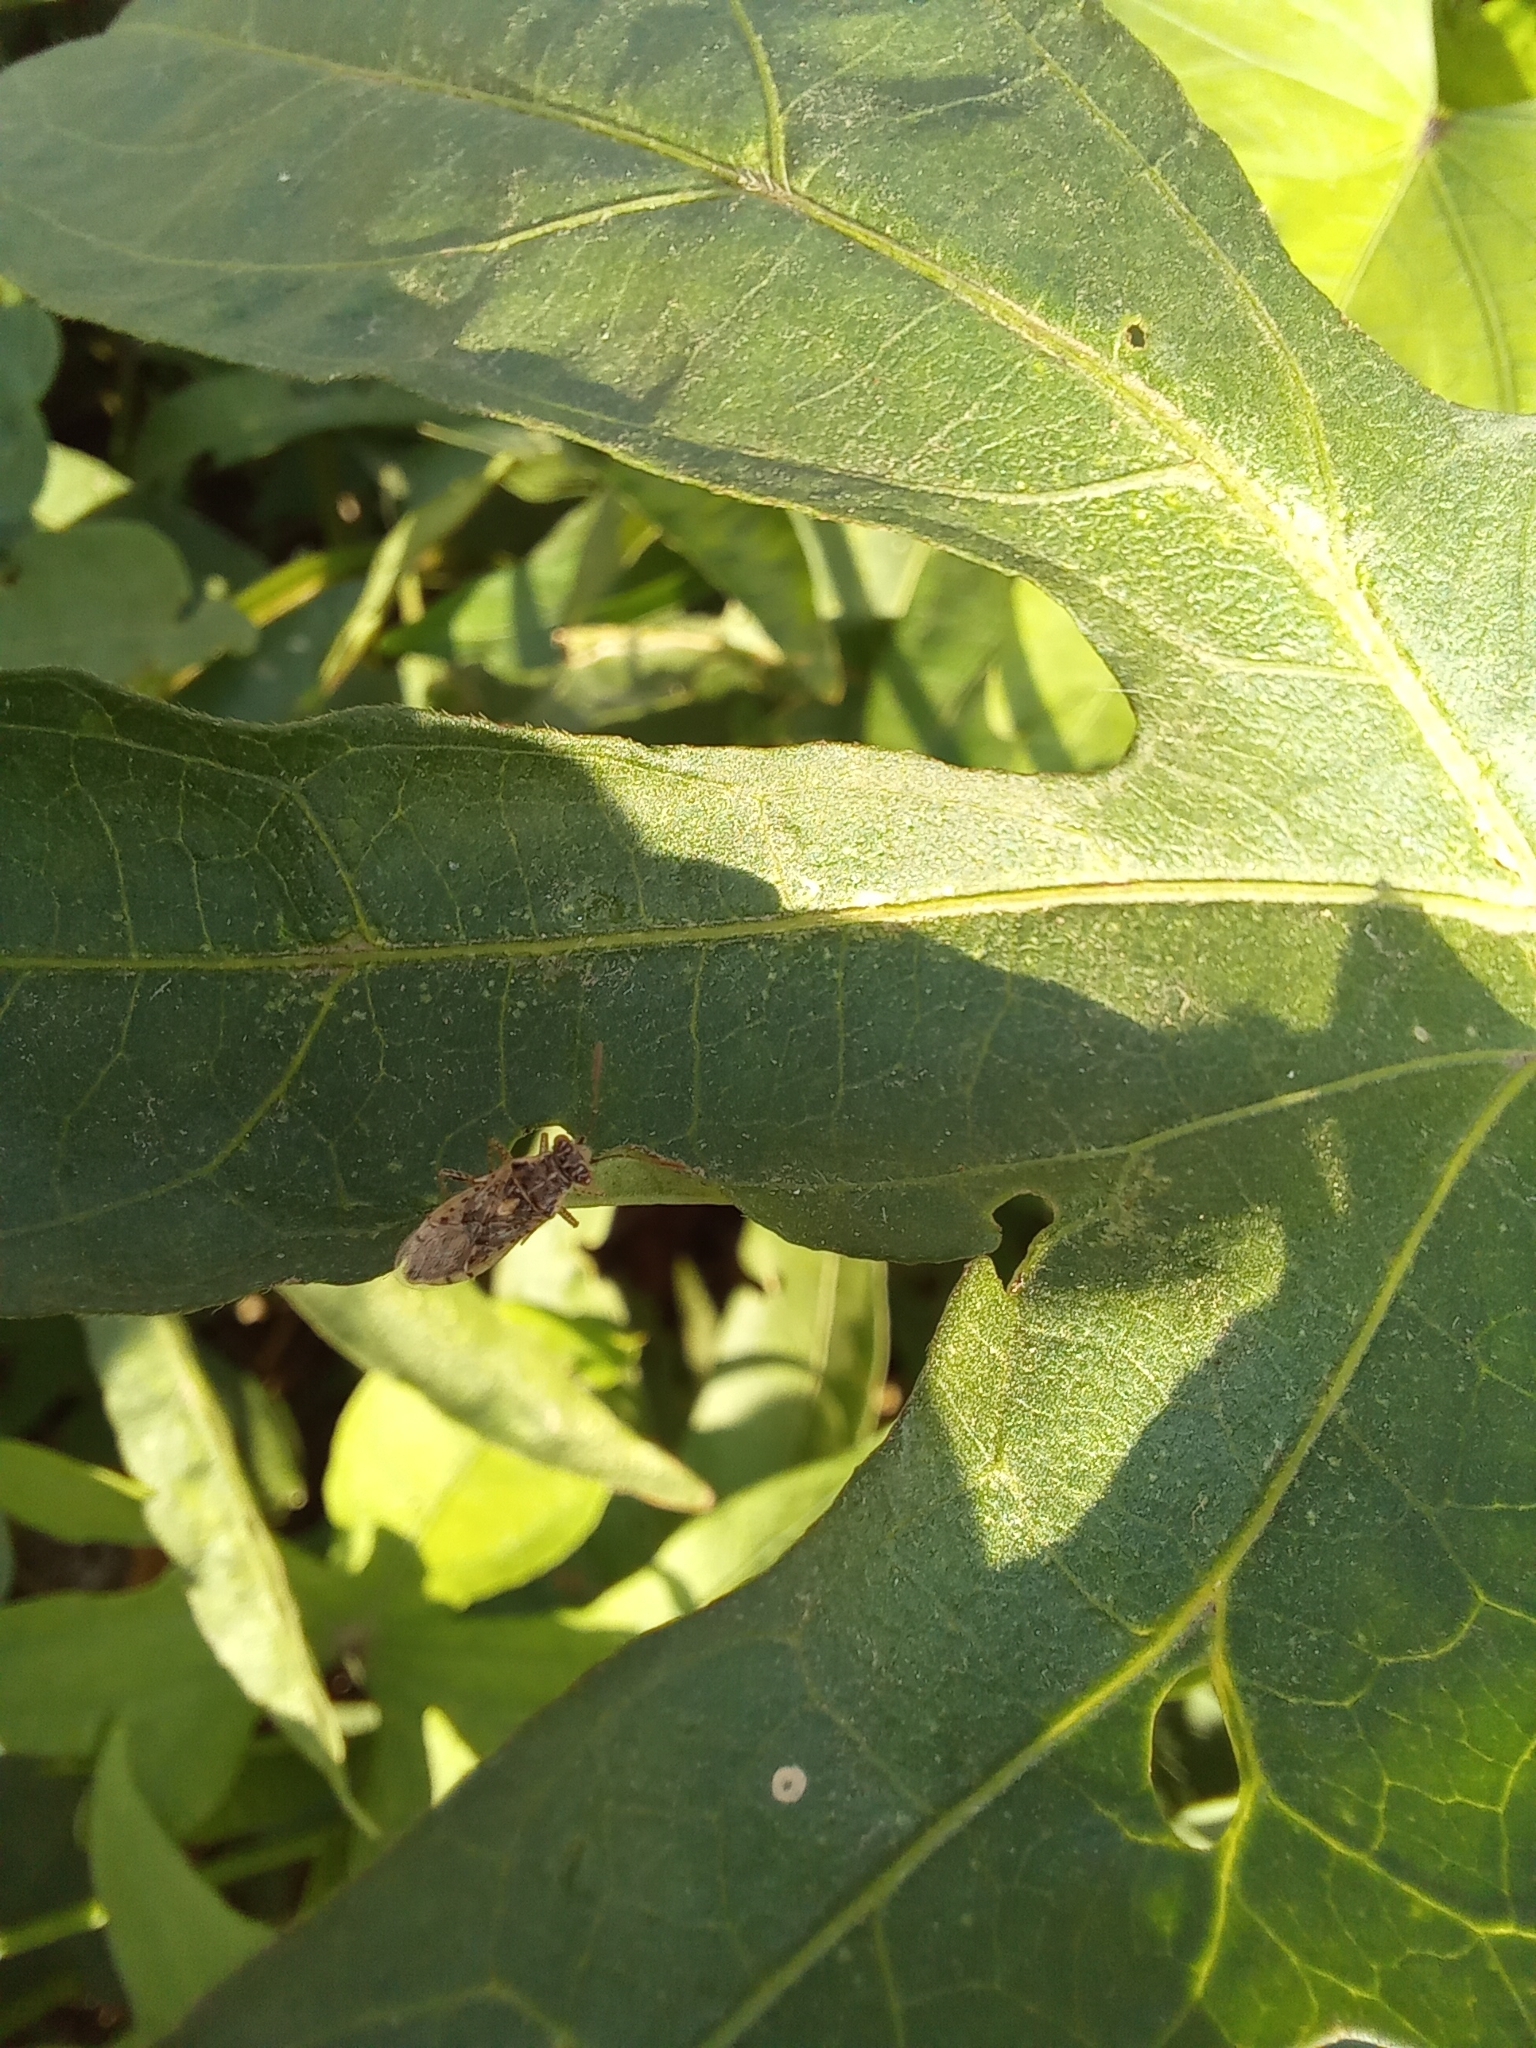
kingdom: Animalia
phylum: Arthropoda
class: Insecta
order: Hemiptera
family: Rhopalidae
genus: Brachycarenus
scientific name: Brachycarenus tigrinus
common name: Scentless plant bug
